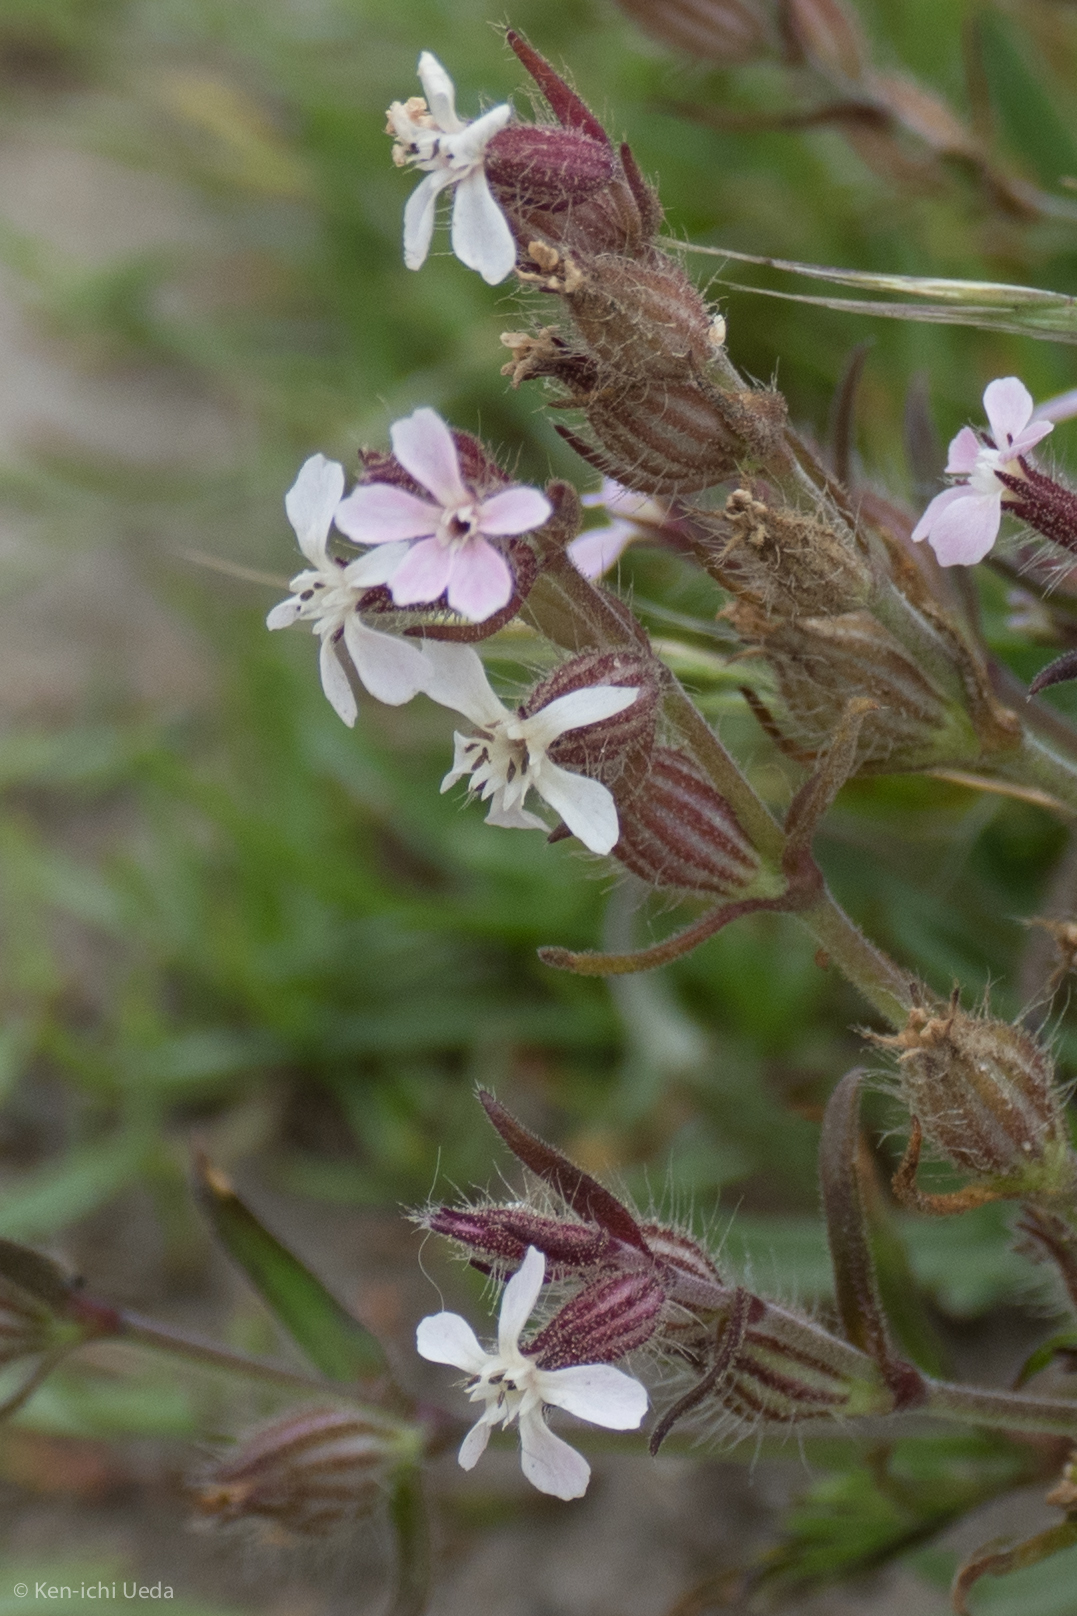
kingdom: Plantae
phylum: Tracheophyta
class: Magnoliopsida
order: Caryophyllales
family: Caryophyllaceae
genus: Silene
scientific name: Silene gallica
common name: Small-flowered catchfly
